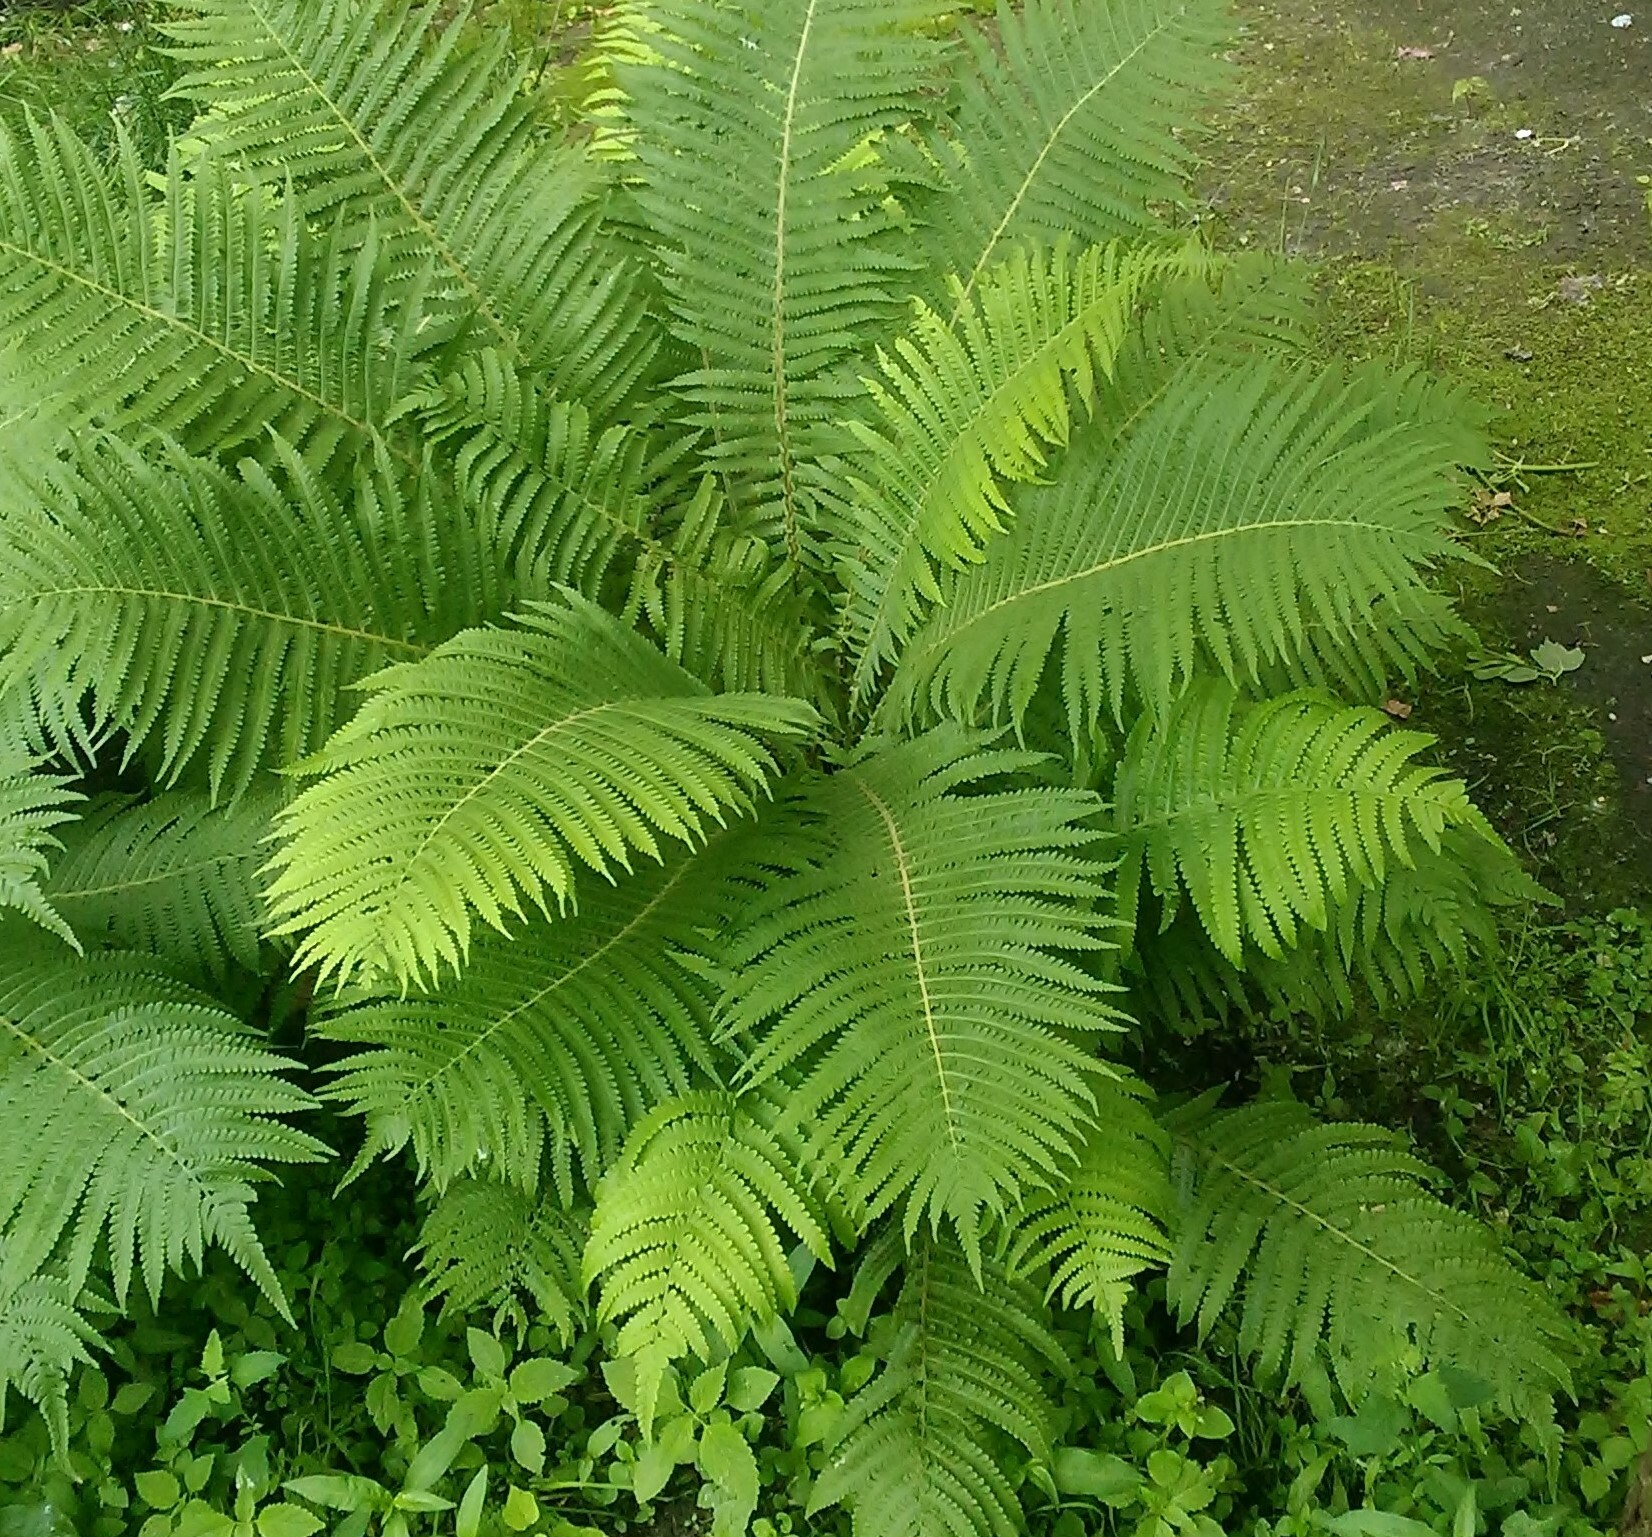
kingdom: Plantae
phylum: Tracheophyta
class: Polypodiopsida
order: Polypodiales
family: Onocleaceae
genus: Matteuccia
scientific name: Matteuccia struthiopteris
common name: Ostrich fern
